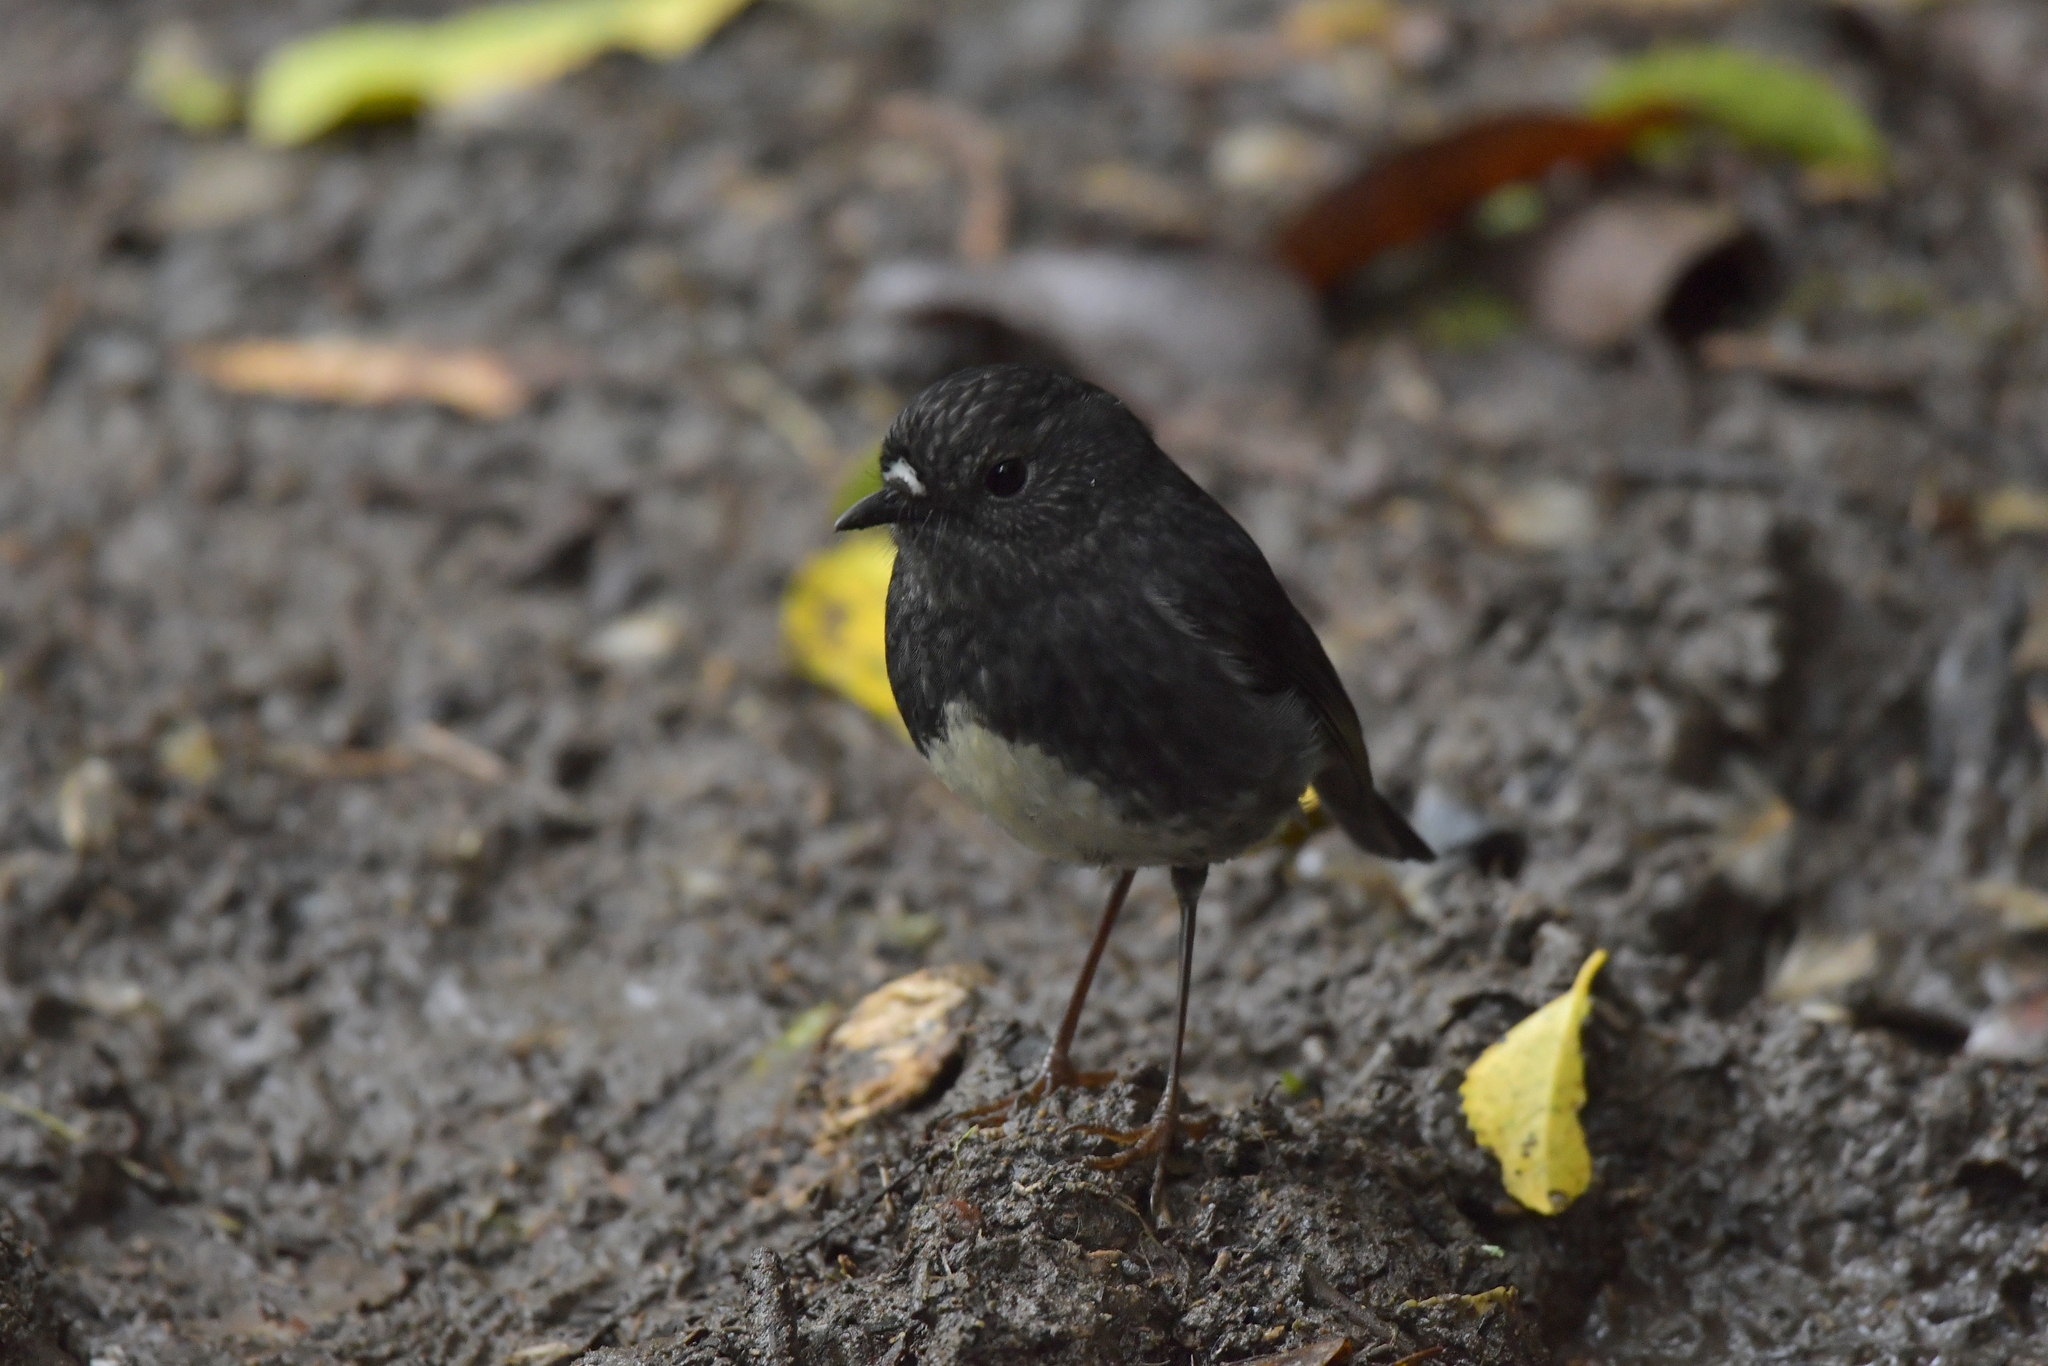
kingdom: Animalia
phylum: Chordata
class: Aves
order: Passeriformes
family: Petroicidae
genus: Petroica
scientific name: Petroica australis
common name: New zealand robin
